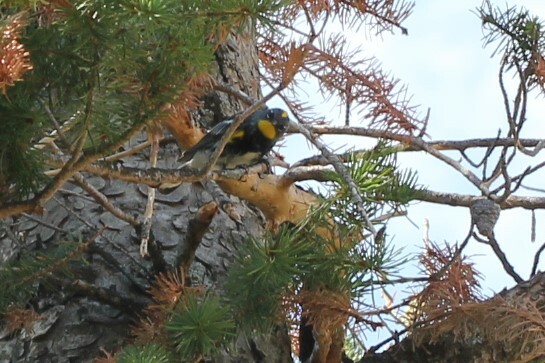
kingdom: Animalia
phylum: Chordata
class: Aves
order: Passeriformes
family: Parulidae
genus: Setophaga
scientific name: Setophaga coronata
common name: Myrtle warbler
